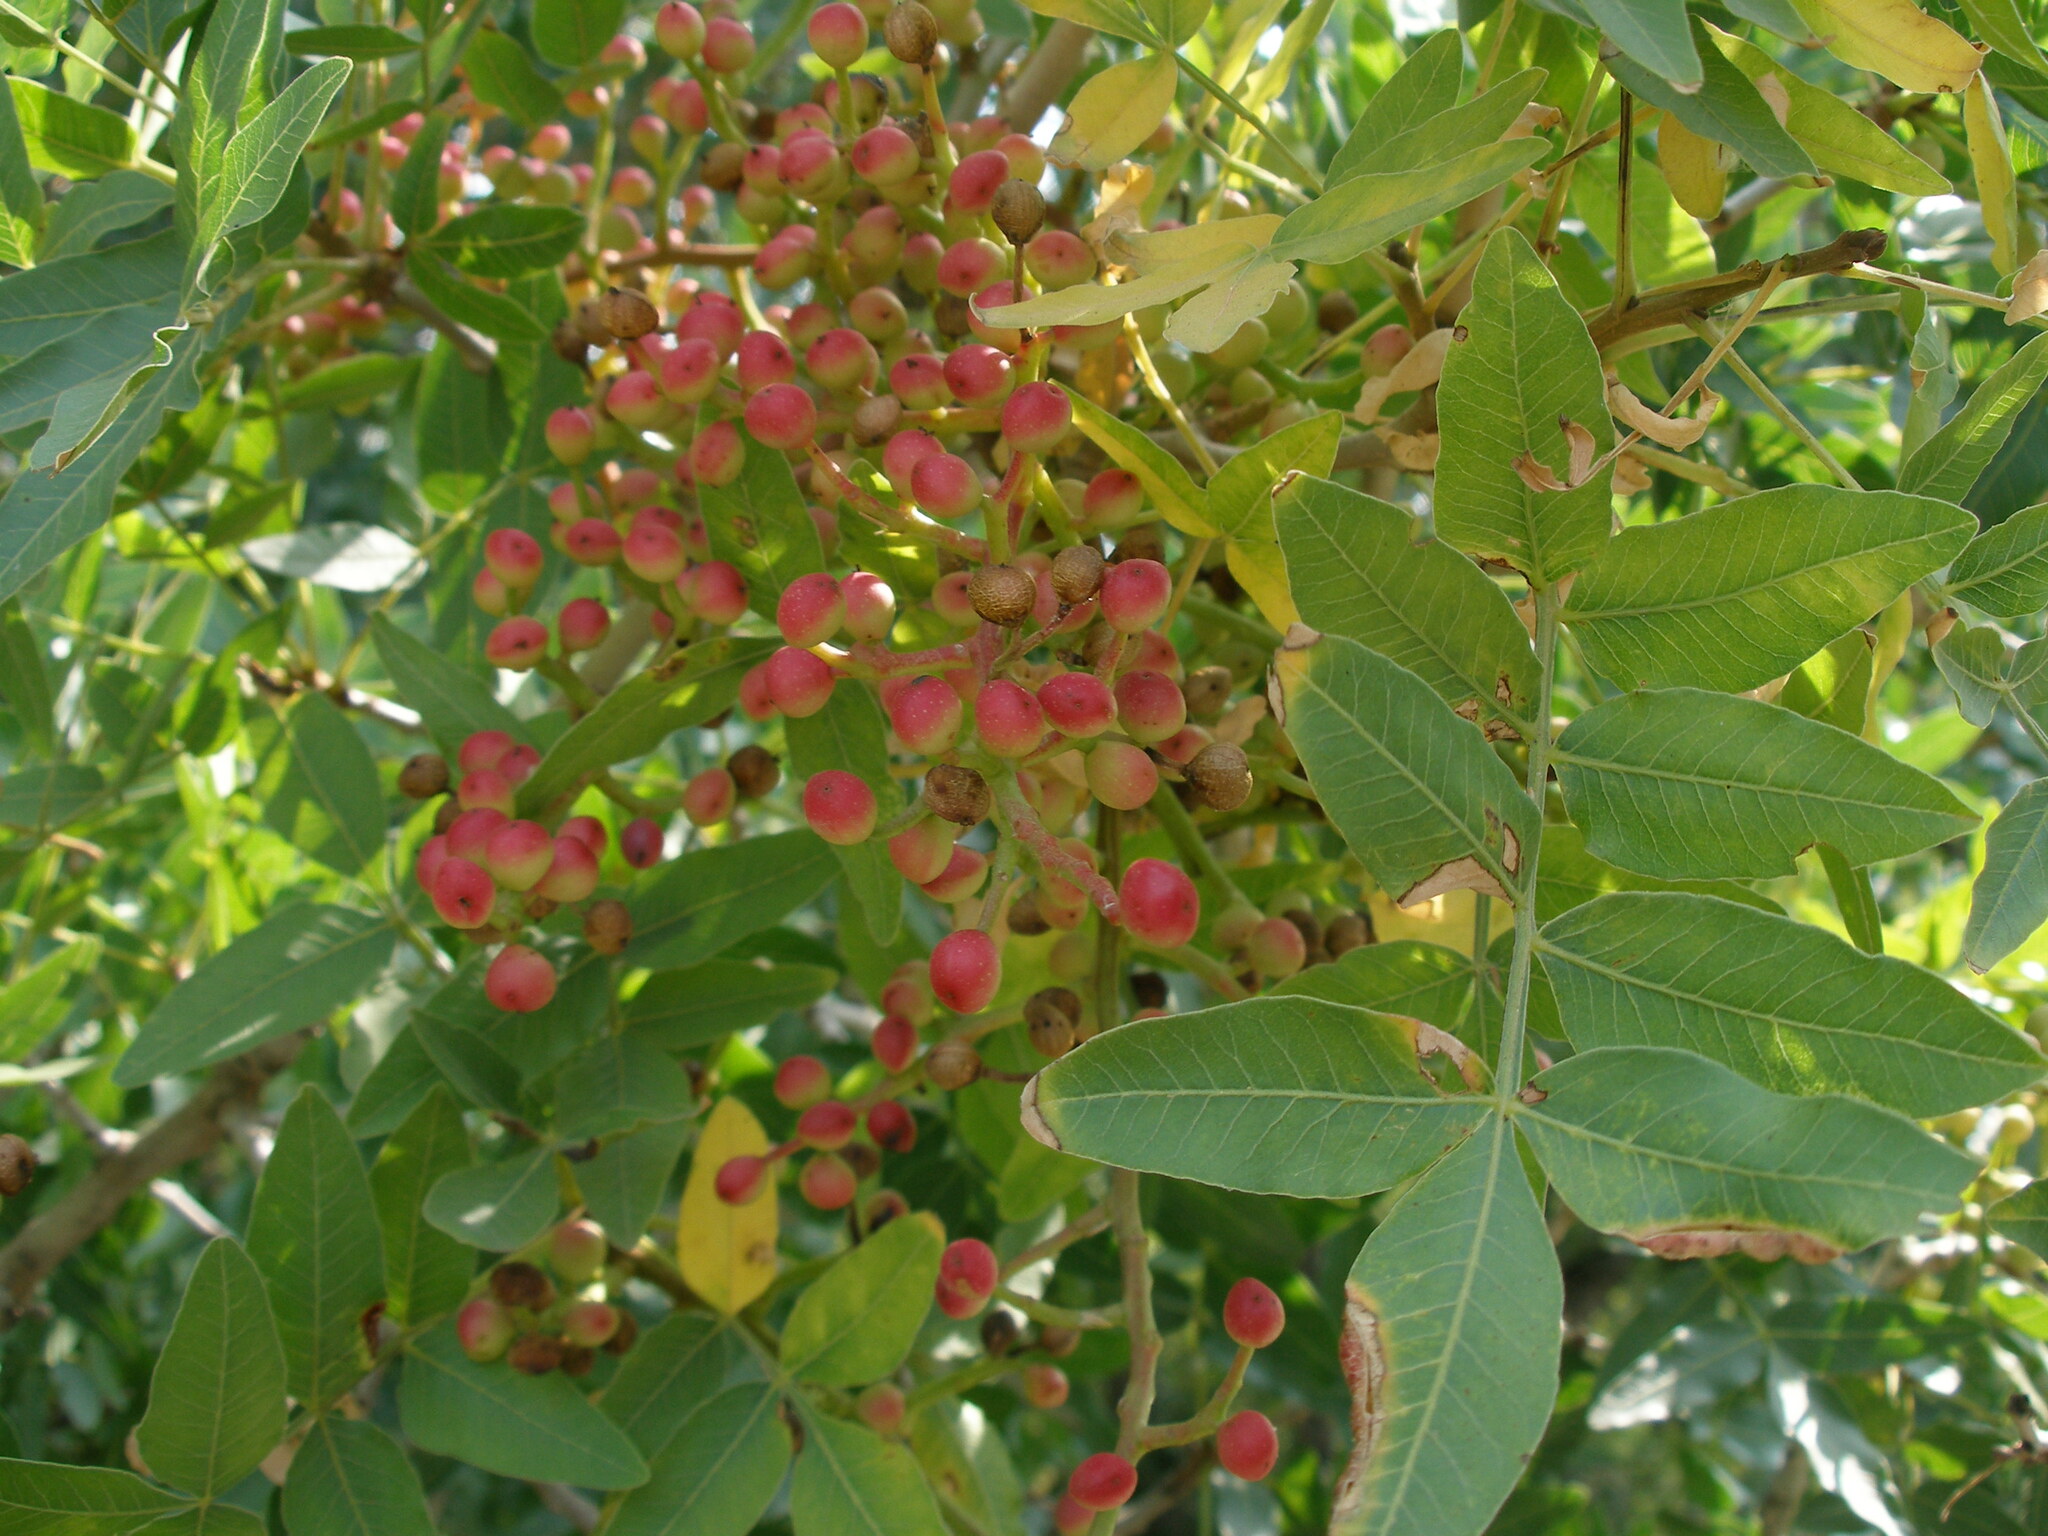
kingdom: Plantae
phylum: Tracheophyta
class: Magnoliopsida
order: Sapindales
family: Anacardiaceae
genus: Pistacia
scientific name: Pistacia atlantica
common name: Mt. atlas mastic tree
